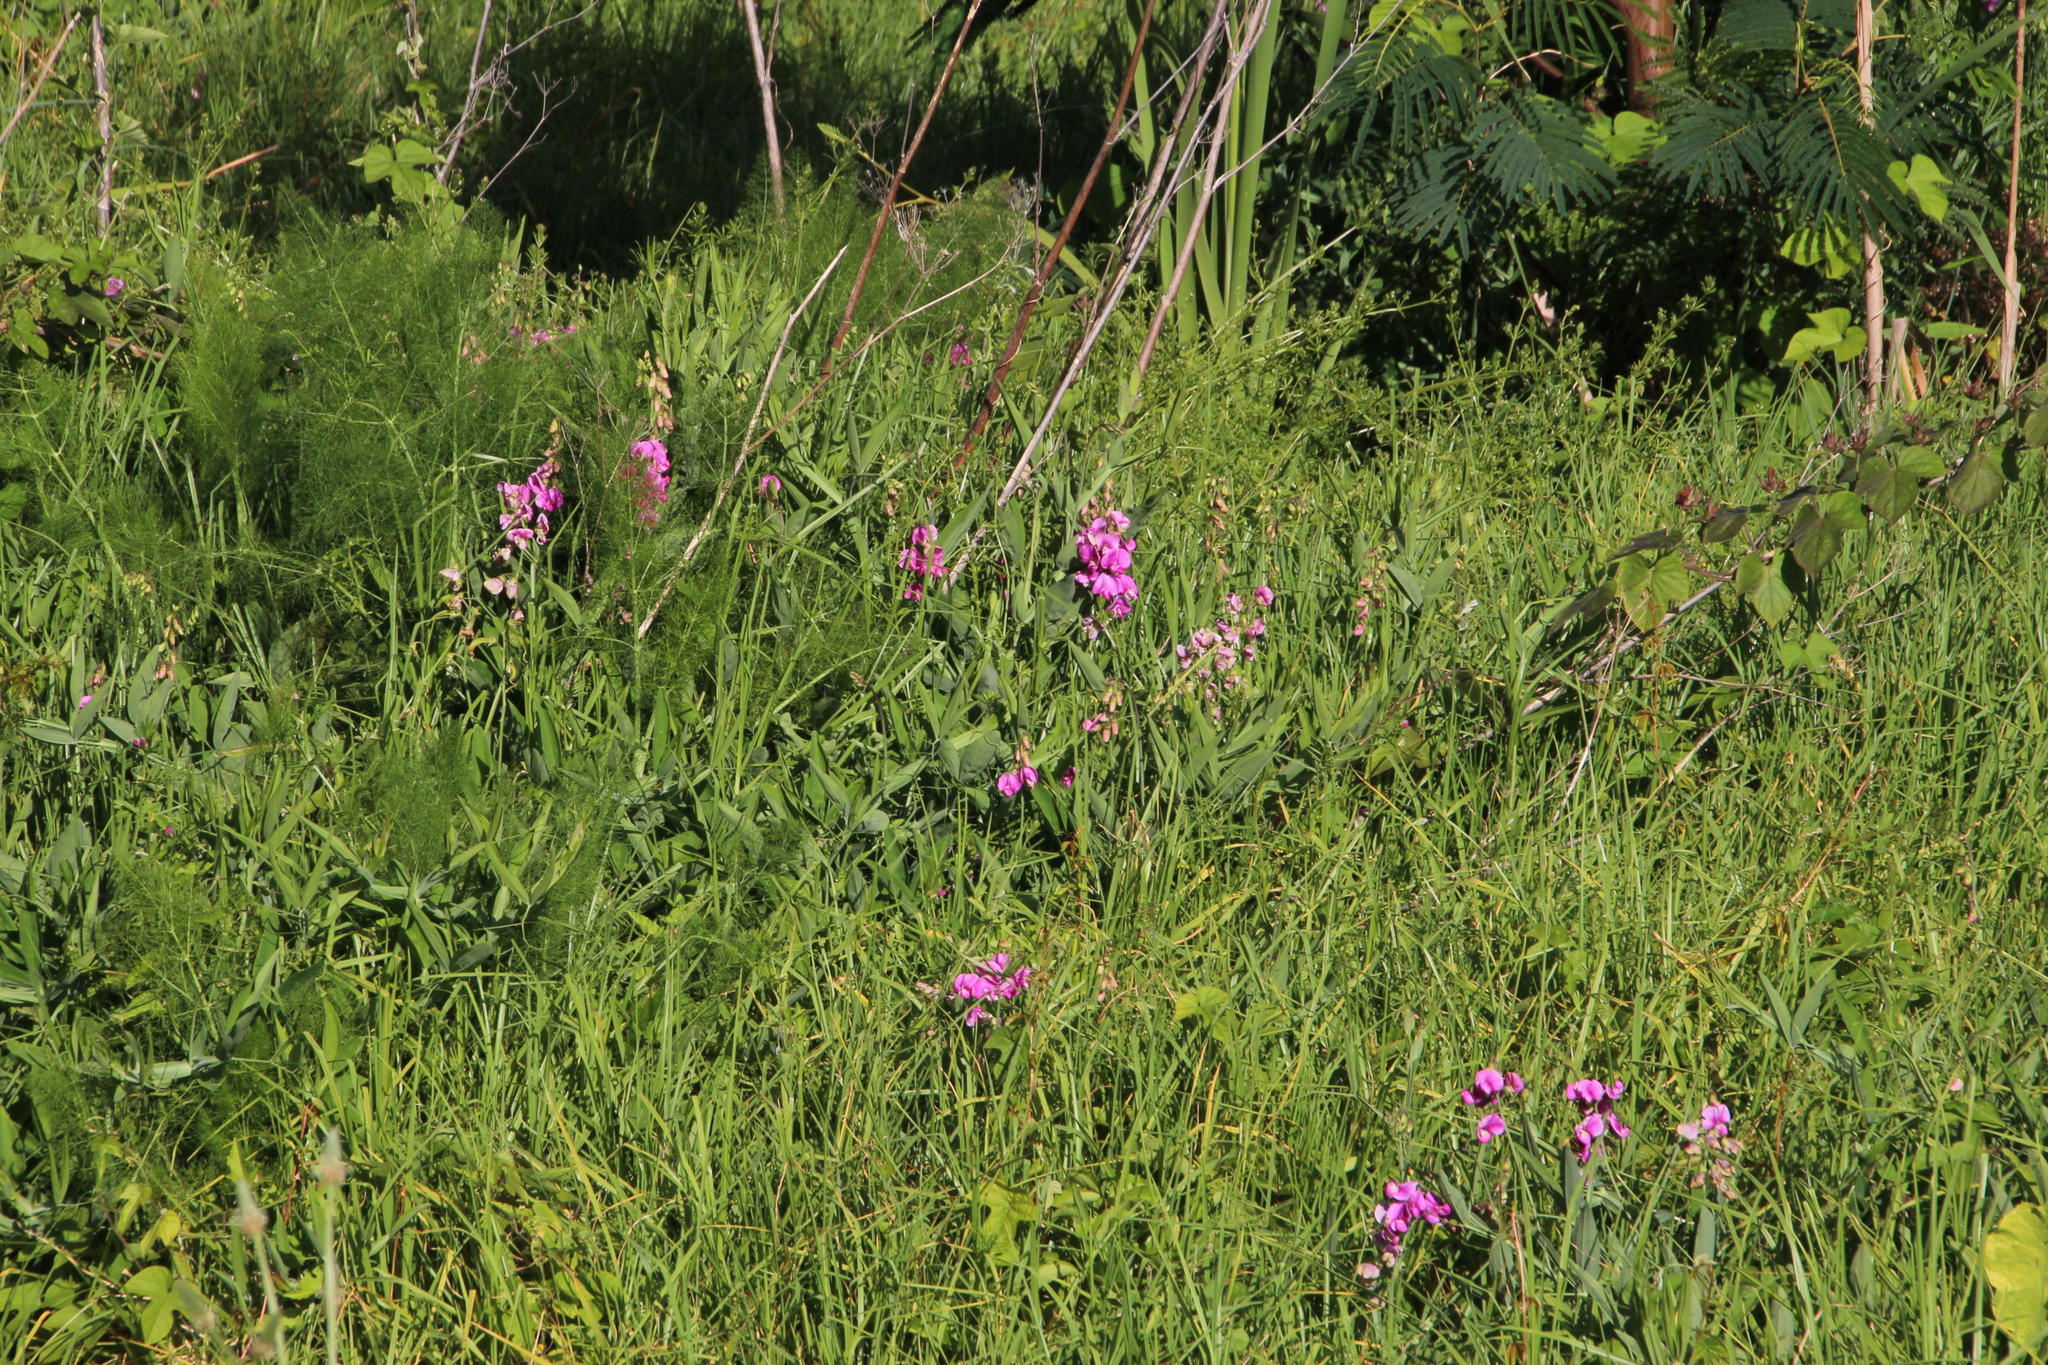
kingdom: Plantae
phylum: Tracheophyta
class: Magnoliopsida
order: Fabales
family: Fabaceae
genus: Lathyrus
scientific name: Lathyrus latifolius
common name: Perennial pea
